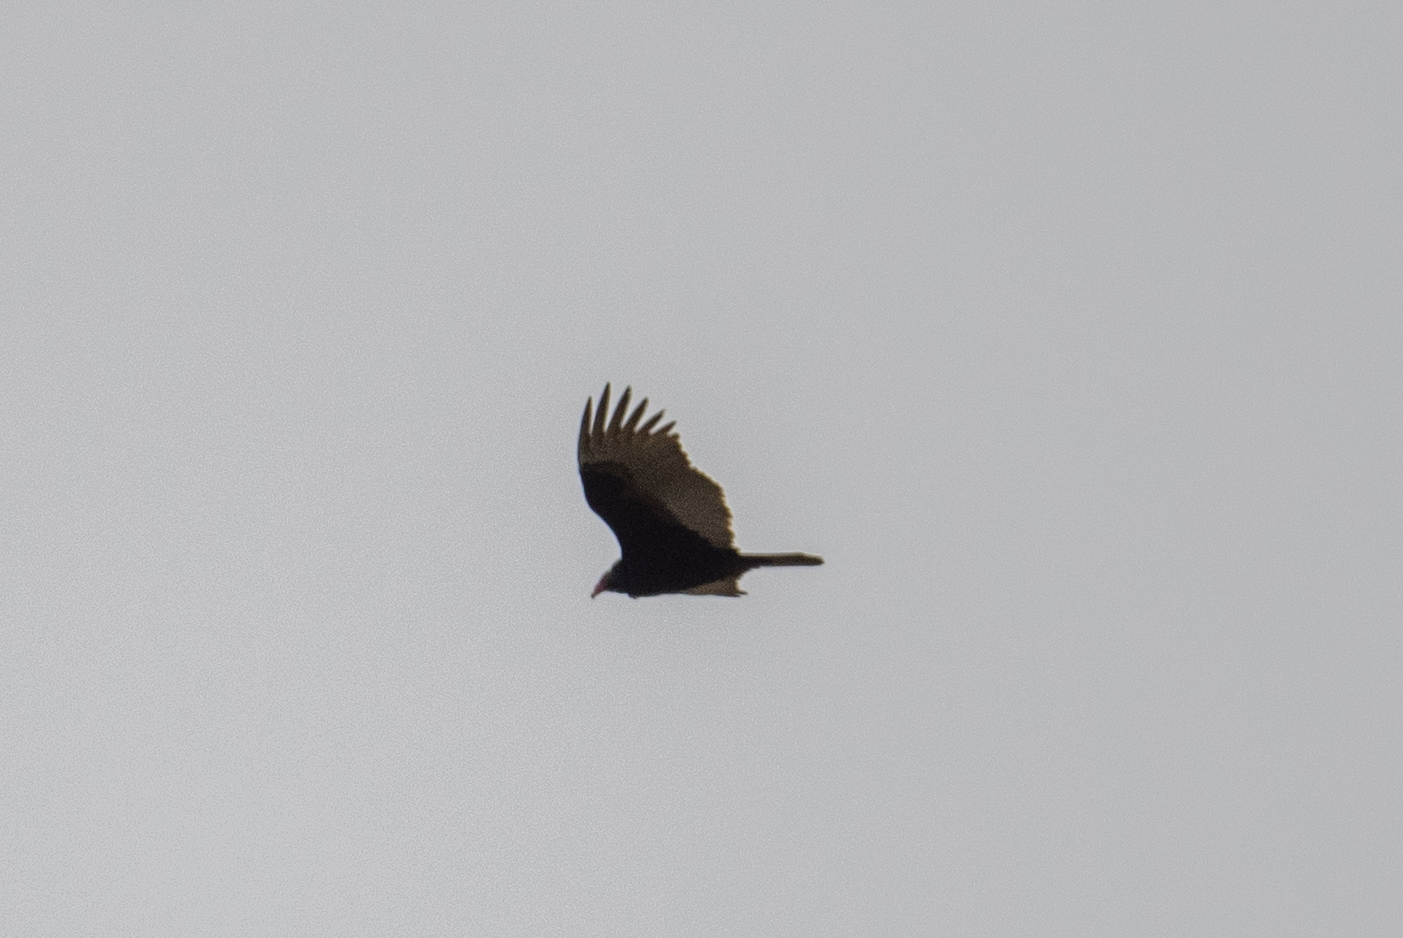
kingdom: Animalia
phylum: Chordata
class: Aves
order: Accipitriformes
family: Cathartidae
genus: Cathartes
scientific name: Cathartes aura
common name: Turkey vulture
